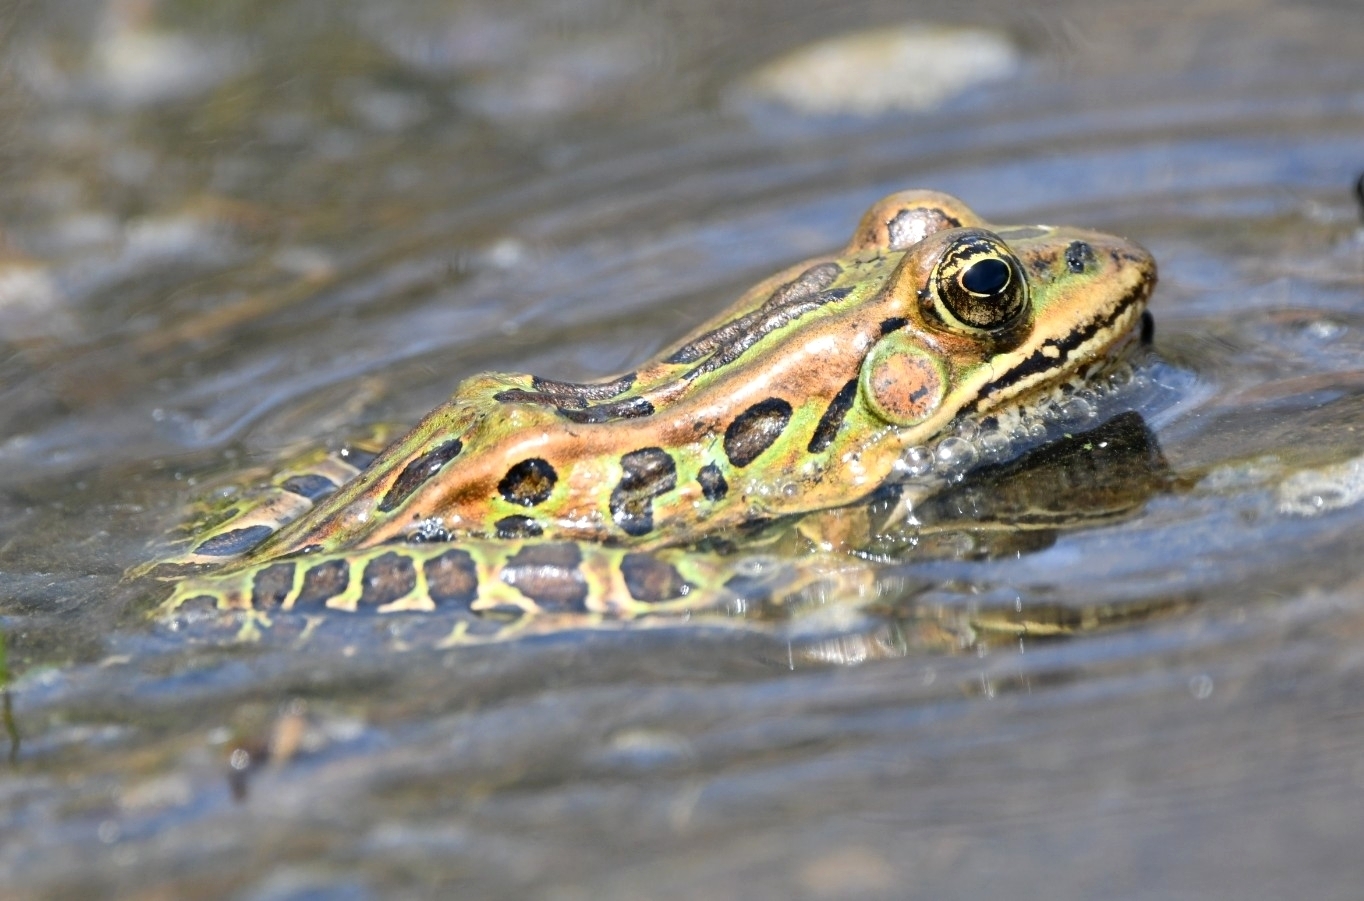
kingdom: Animalia
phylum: Chordata
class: Amphibia
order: Anura
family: Ranidae
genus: Lithobates
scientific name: Lithobates pipiens
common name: Northern leopard frog
